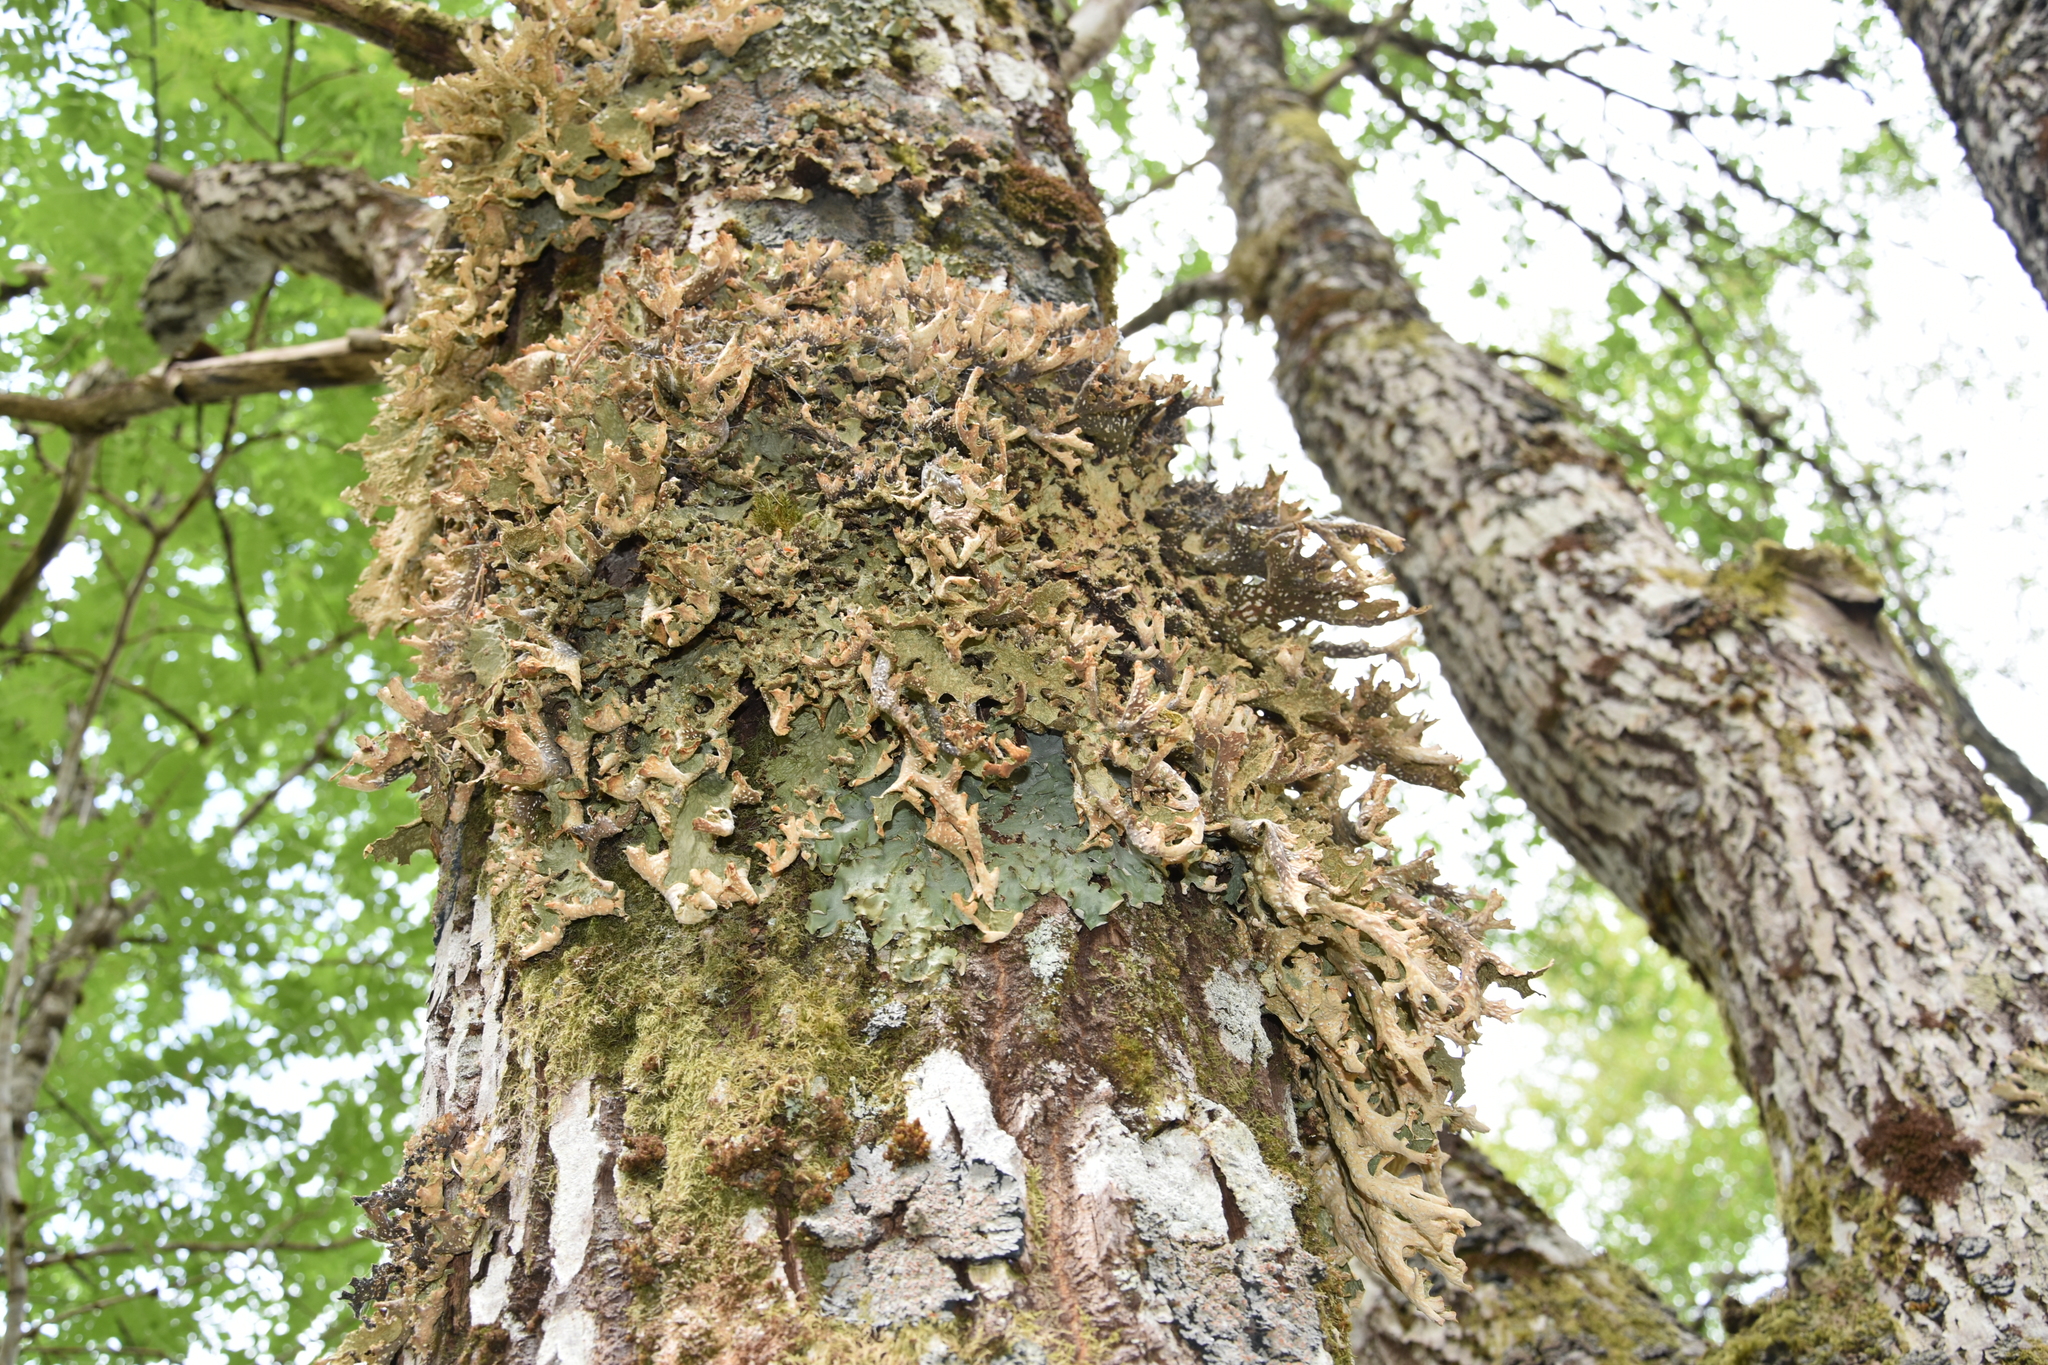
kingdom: Fungi
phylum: Ascomycota
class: Lecanoromycetes
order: Peltigerales
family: Lobariaceae
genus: Lobaria
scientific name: Lobaria pulmonaria
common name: Lungwort
